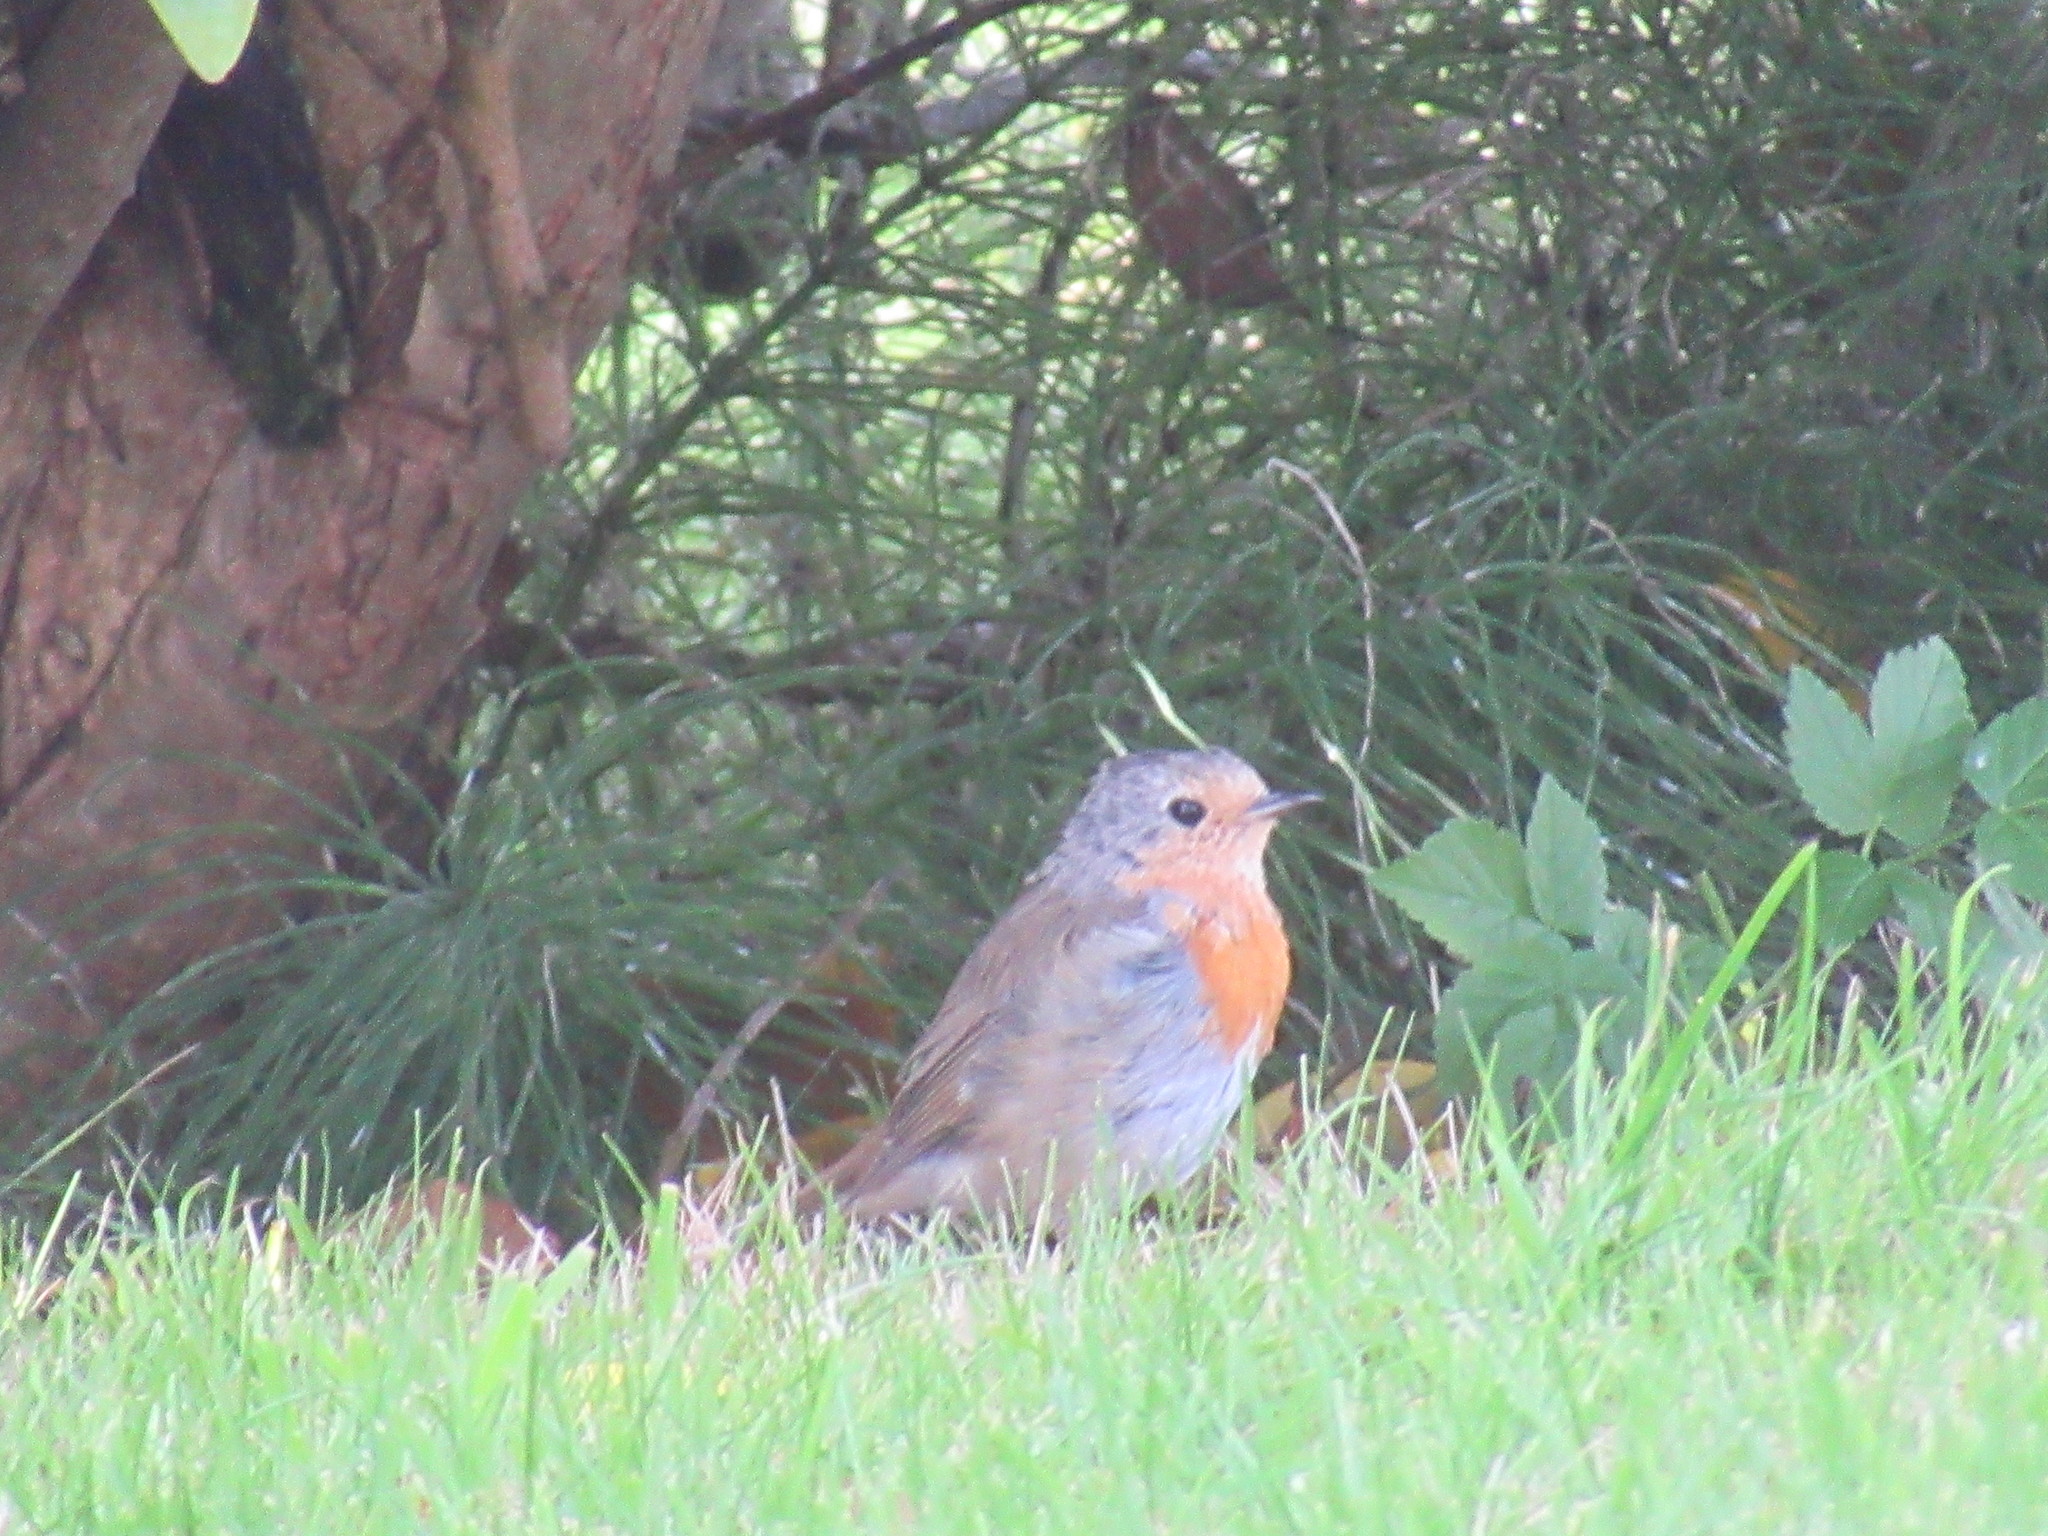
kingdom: Animalia
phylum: Chordata
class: Aves
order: Passeriformes
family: Muscicapidae
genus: Erithacus
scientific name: Erithacus rubecula
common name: European robin
